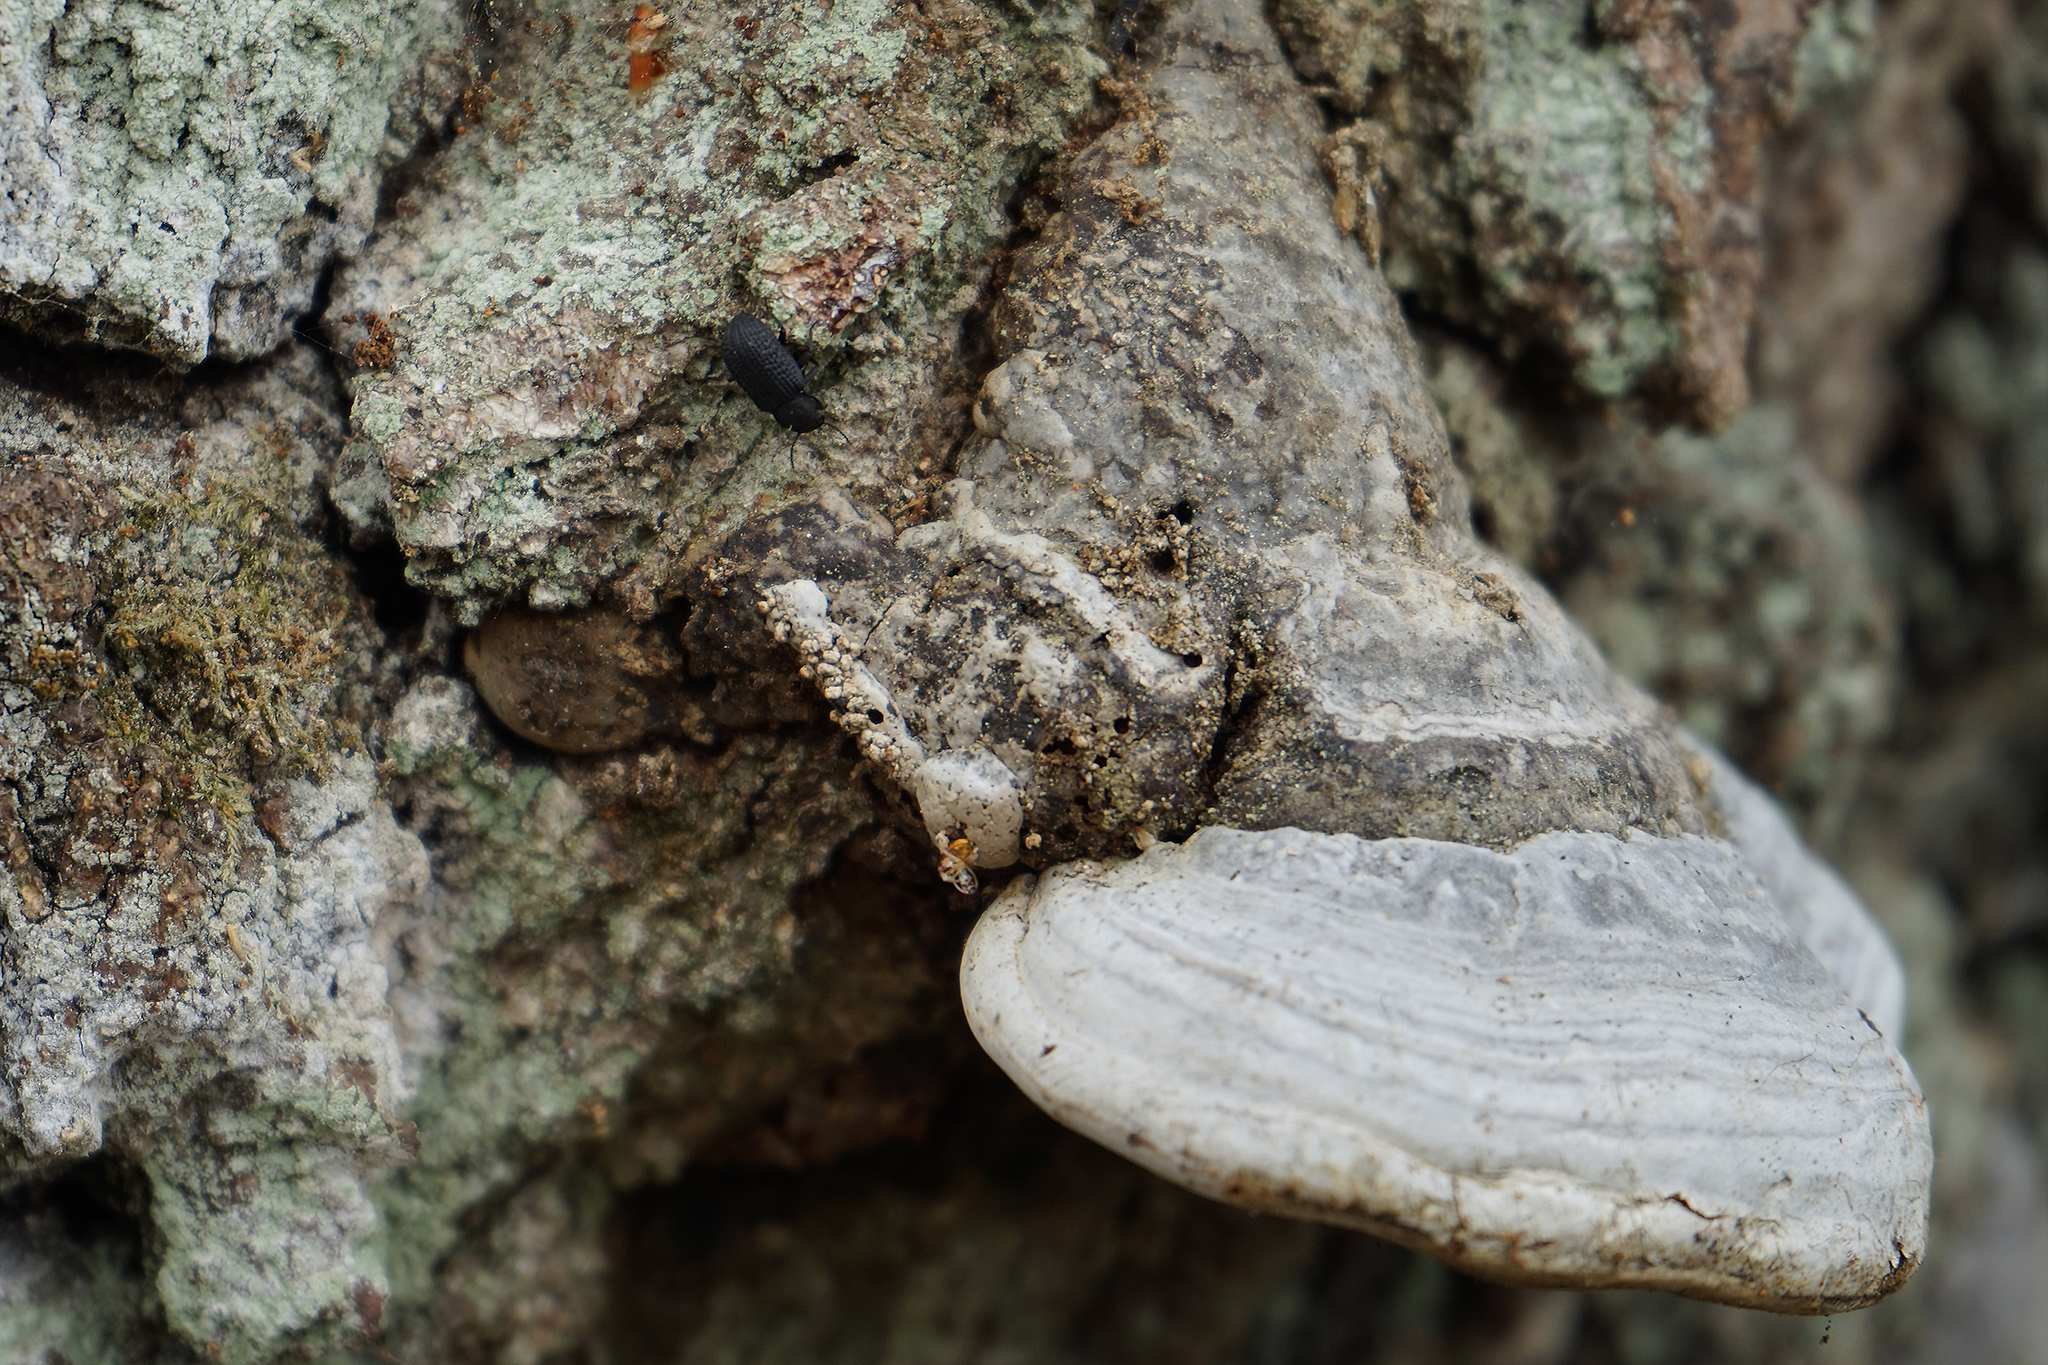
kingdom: Animalia
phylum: Arthropoda
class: Insecta
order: Coleoptera
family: Tenebrionidae
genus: Bolitophagus
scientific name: Bolitophagus reticulatus
